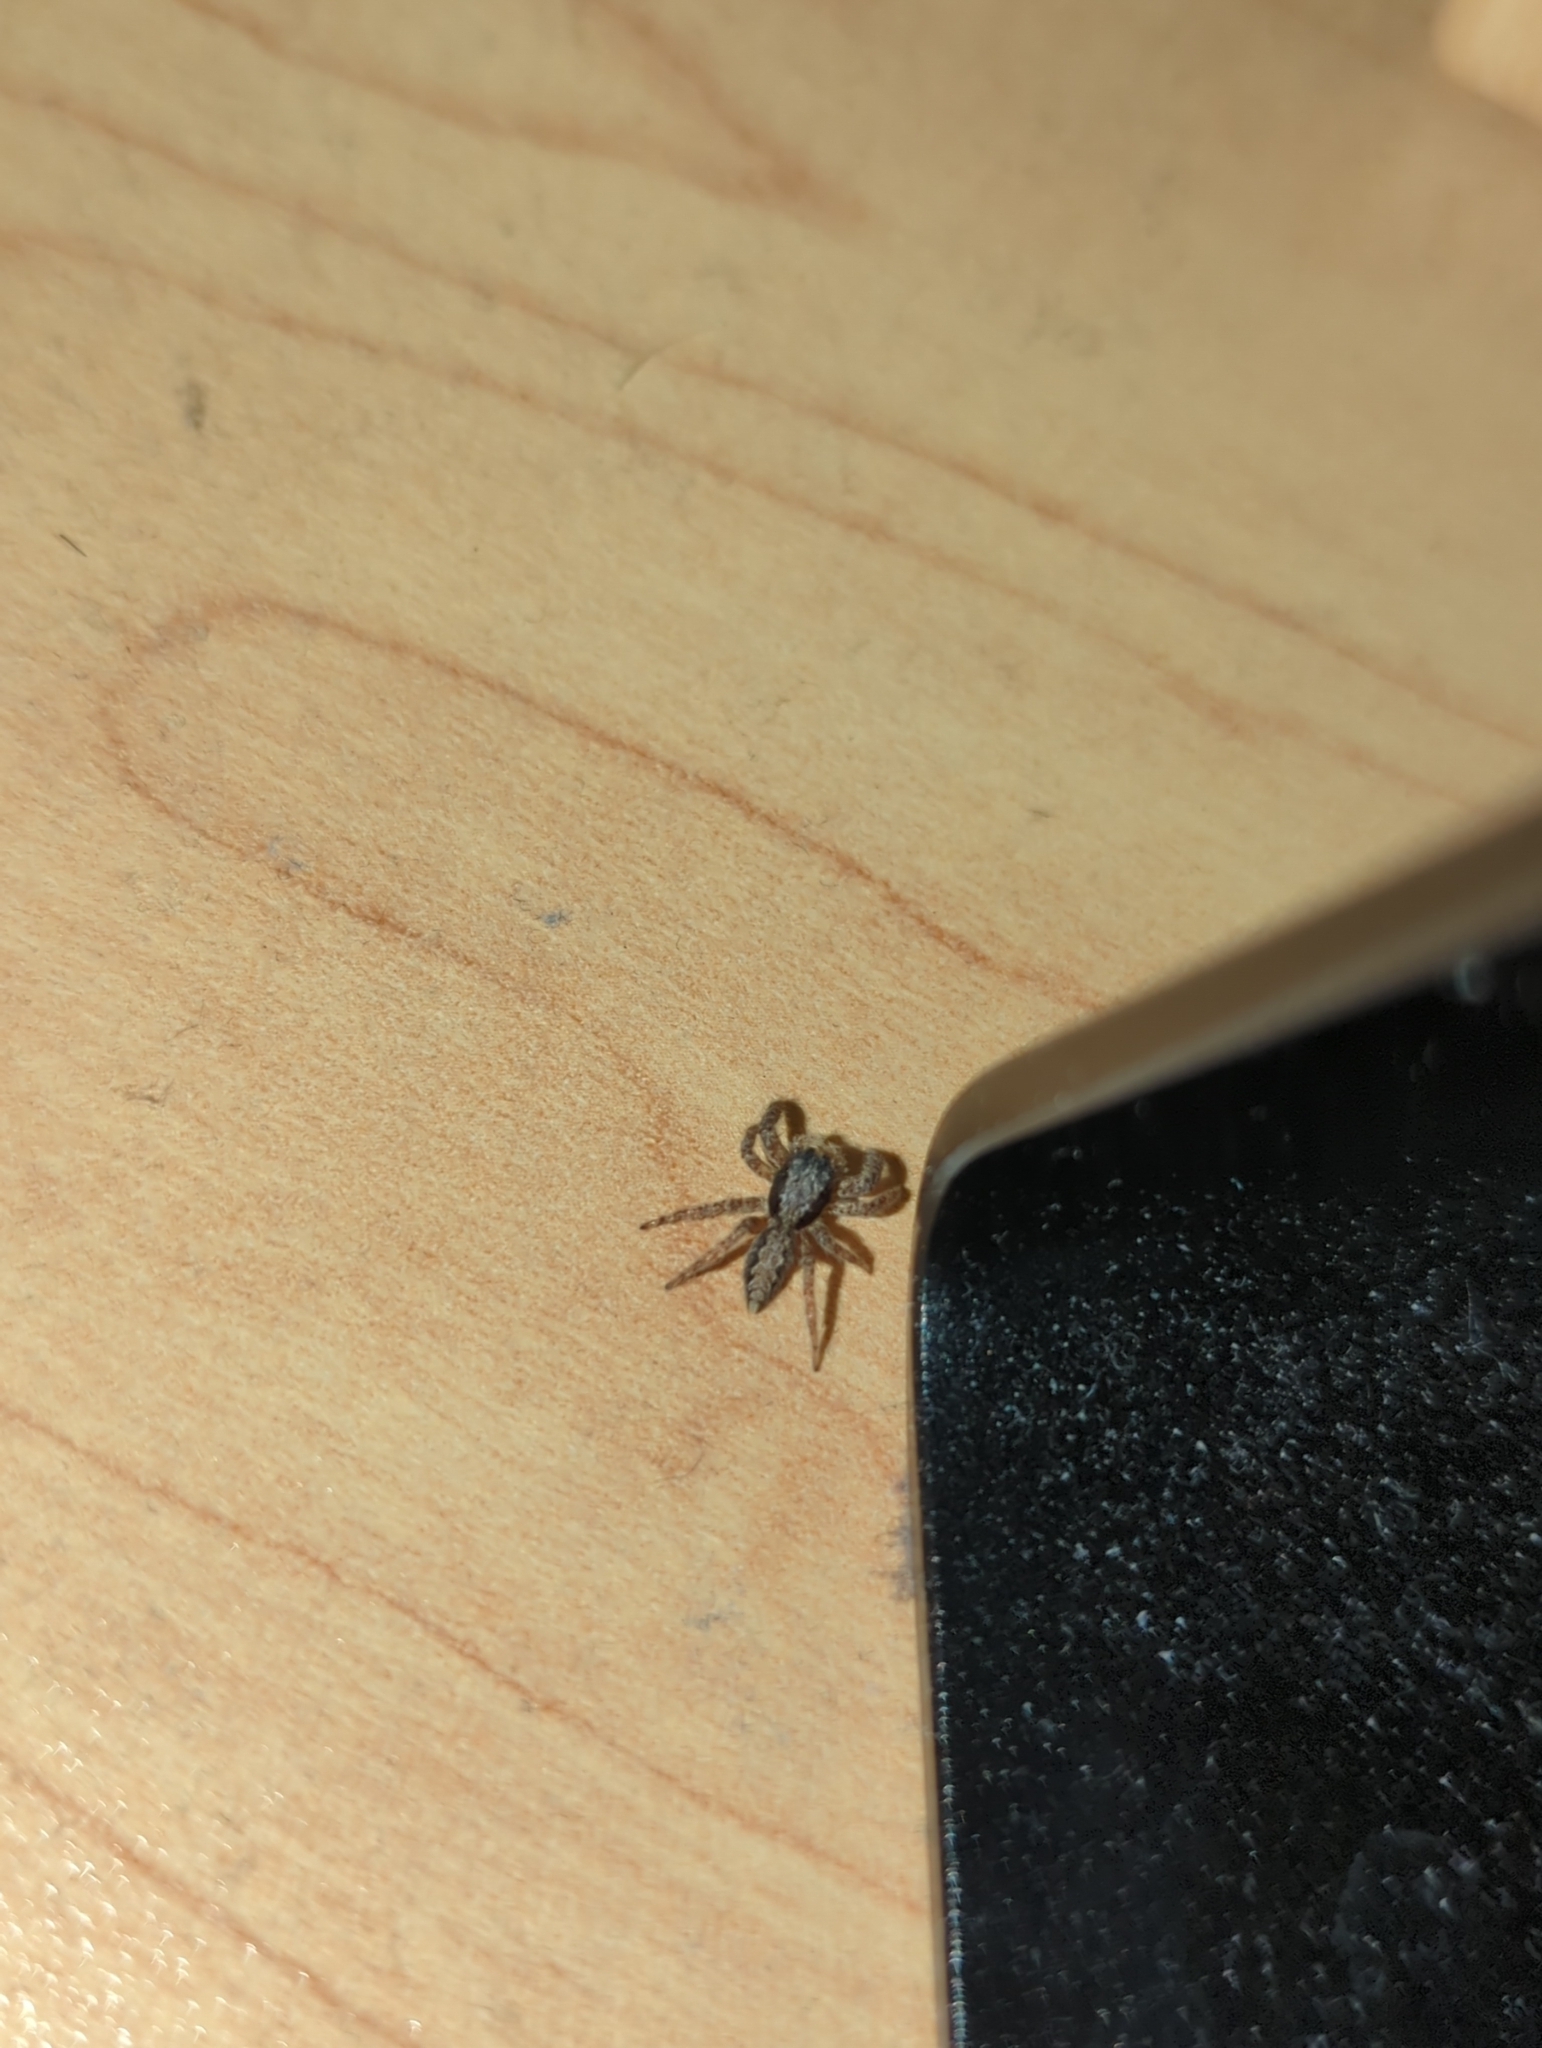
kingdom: Animalia
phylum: Arthropoda
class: Arachnida
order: Araneae
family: Salticidae
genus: Platycryptus
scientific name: Platycryptus californicus
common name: Jumping spiders
